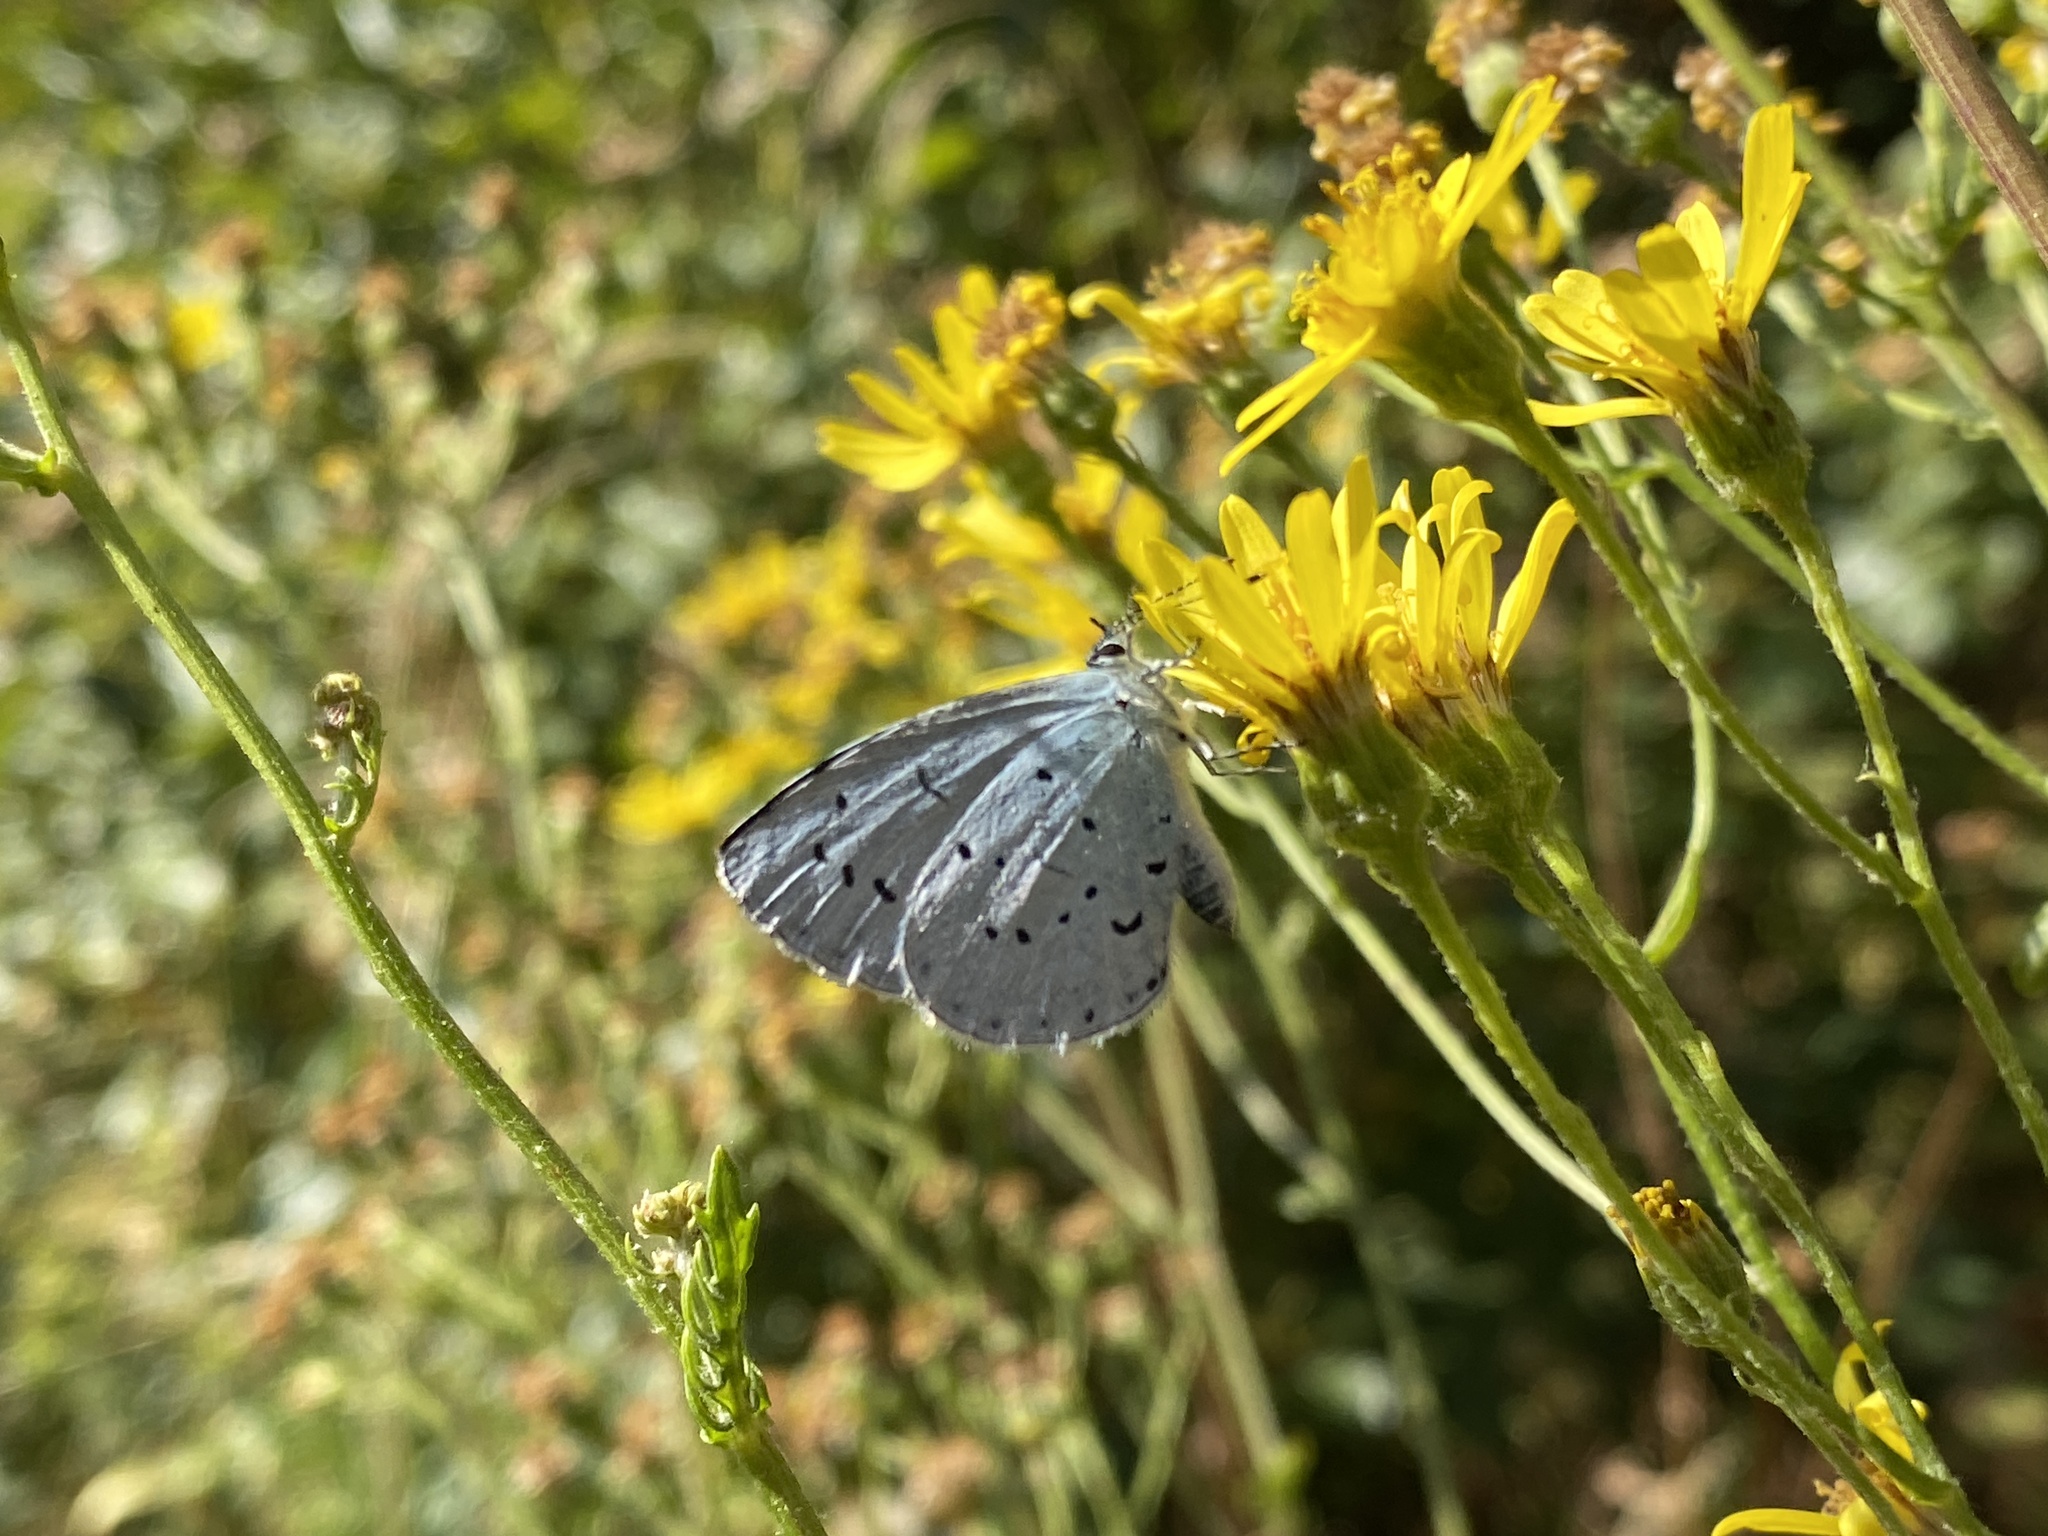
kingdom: Animalia
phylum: Arthropoda
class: Insecta
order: Lepidoptera
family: Lycaenidae
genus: Celastrina
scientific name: Celastrina argiolus
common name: Holly blue
